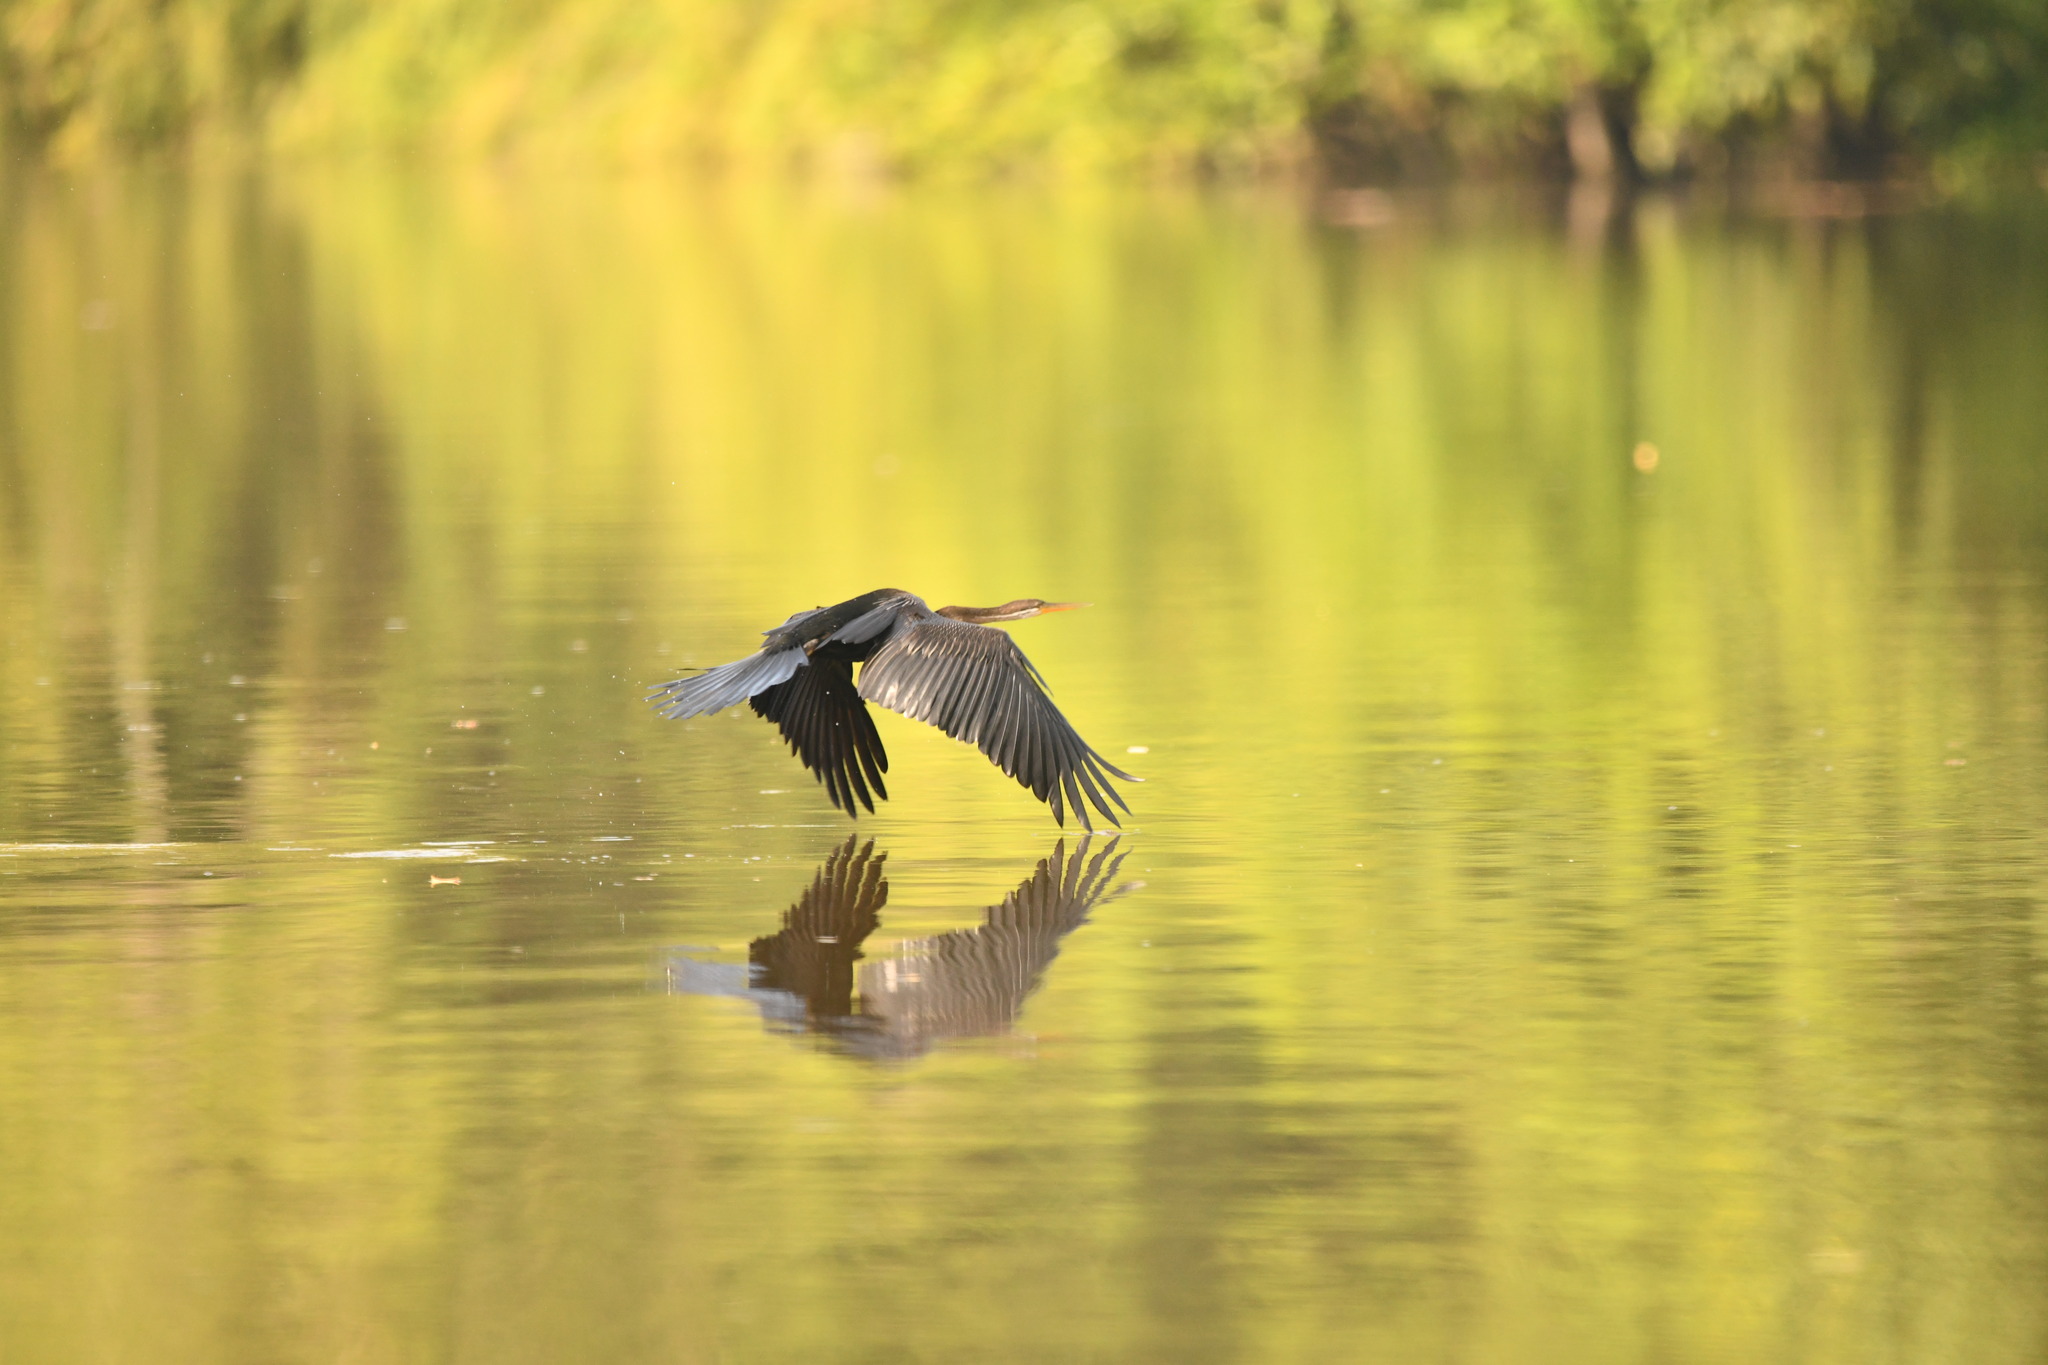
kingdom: Animalia
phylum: Chordata
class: Aves
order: Suliformes
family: Anhingidae
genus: Anhinga
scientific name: Anhinga melanogaster
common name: Oriental darter
